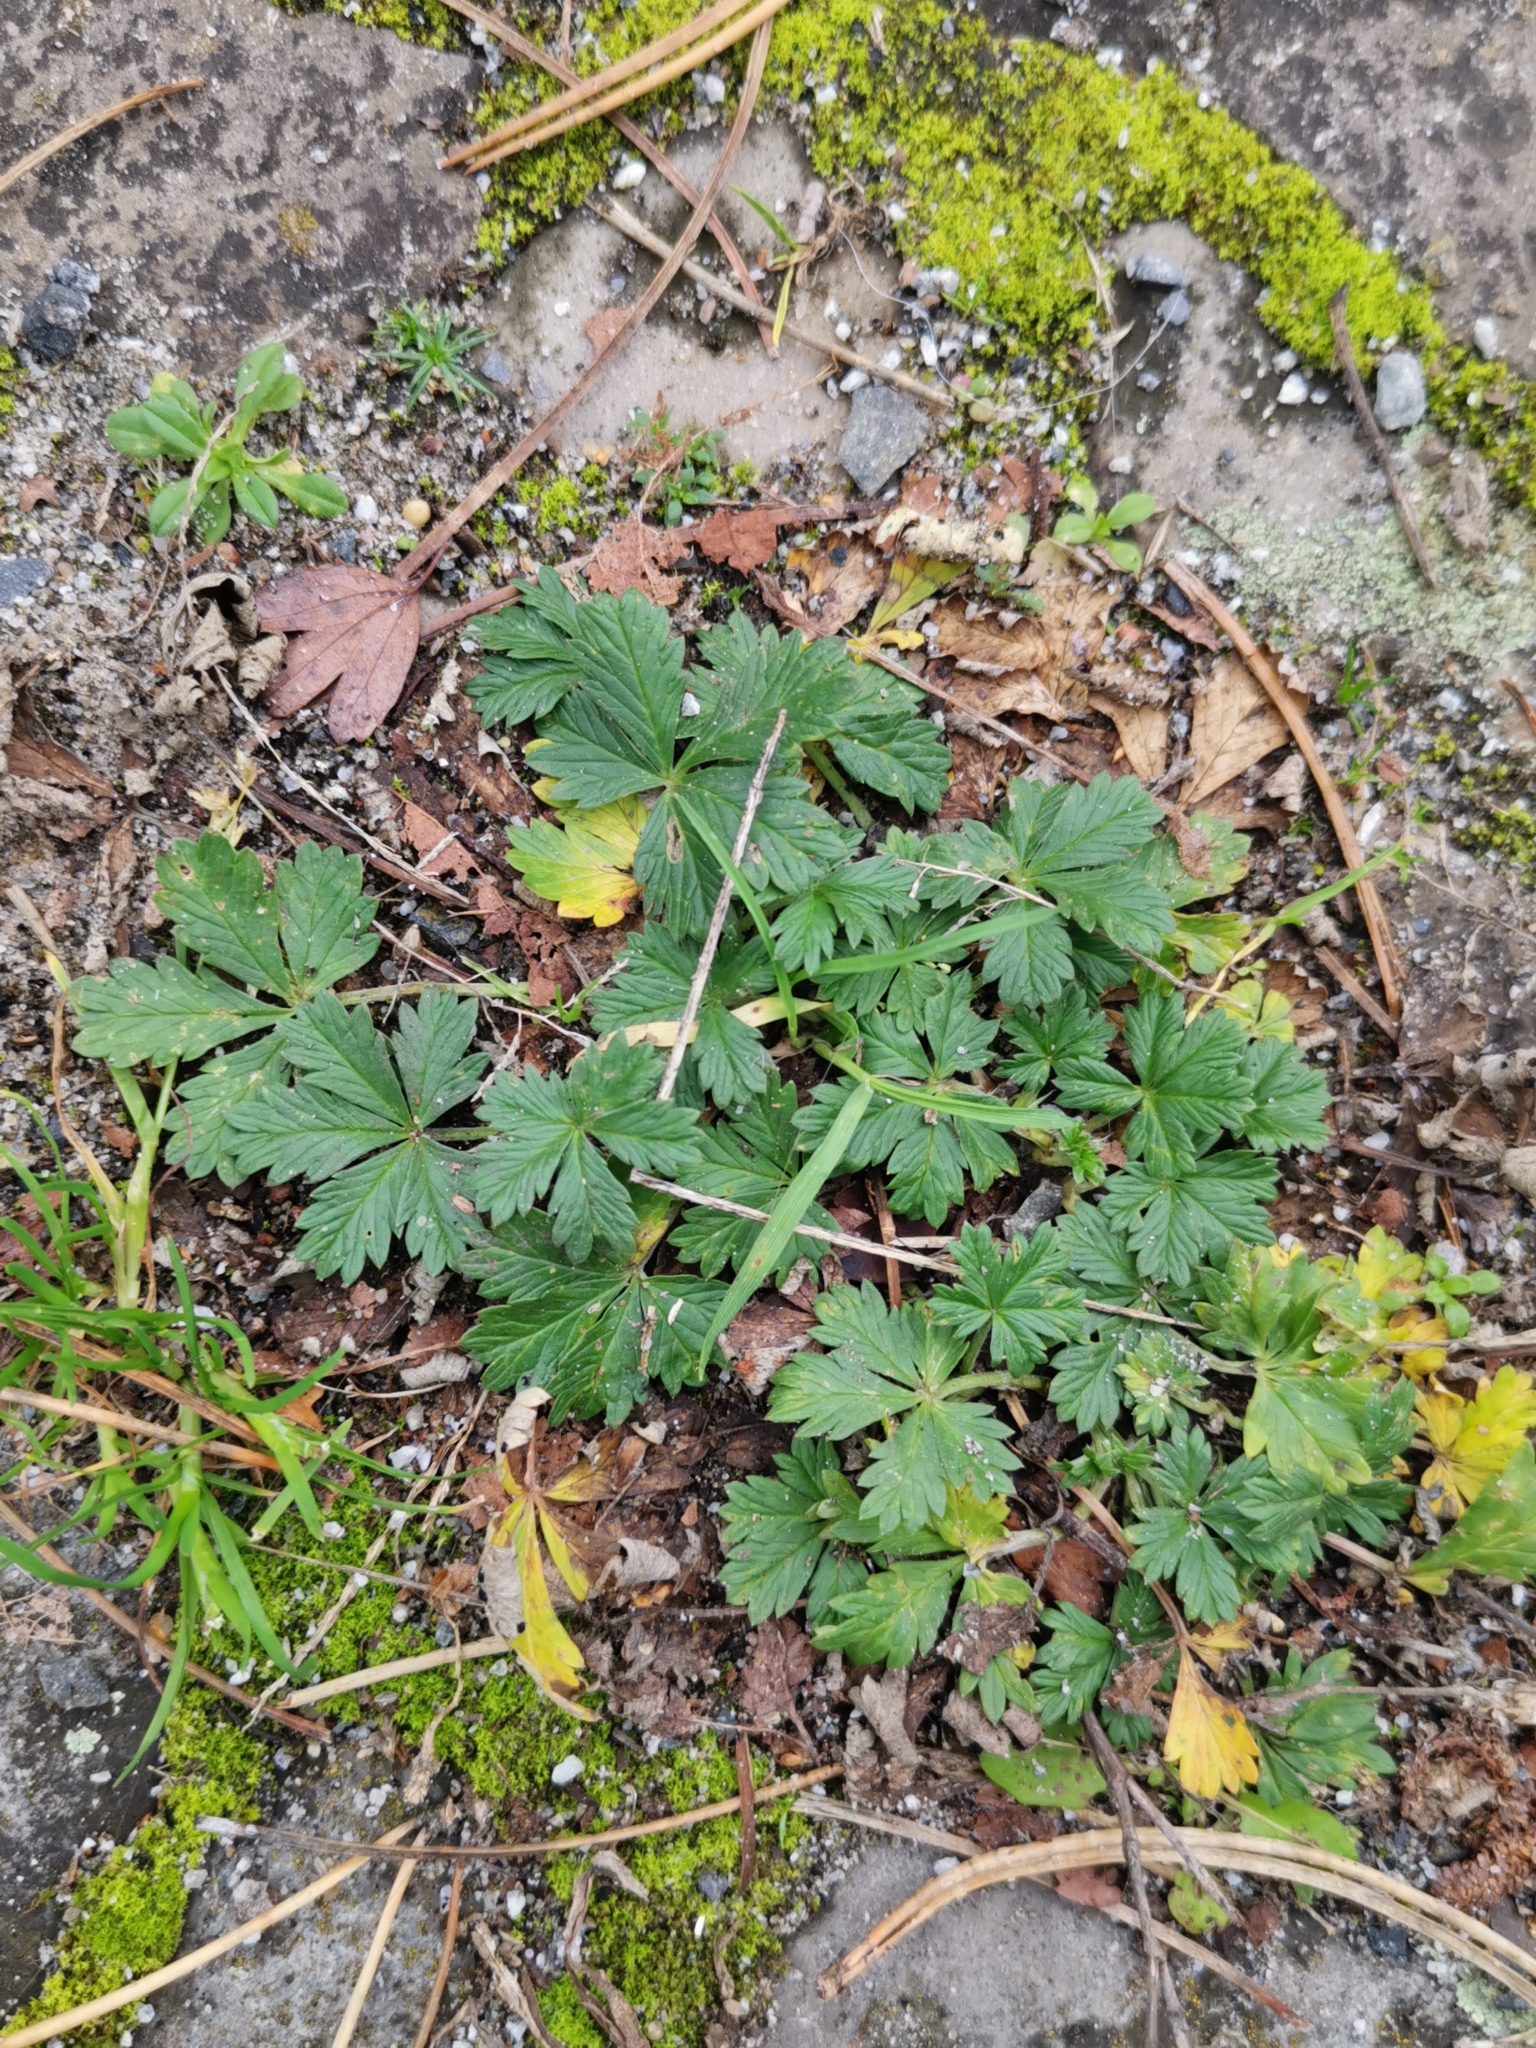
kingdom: Plantae
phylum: Tracheophyta
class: Magnoliopsida
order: Rosales
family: Rosaceae
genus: Potentilla
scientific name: Potentilla argentea
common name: Hoary cinquefoil
